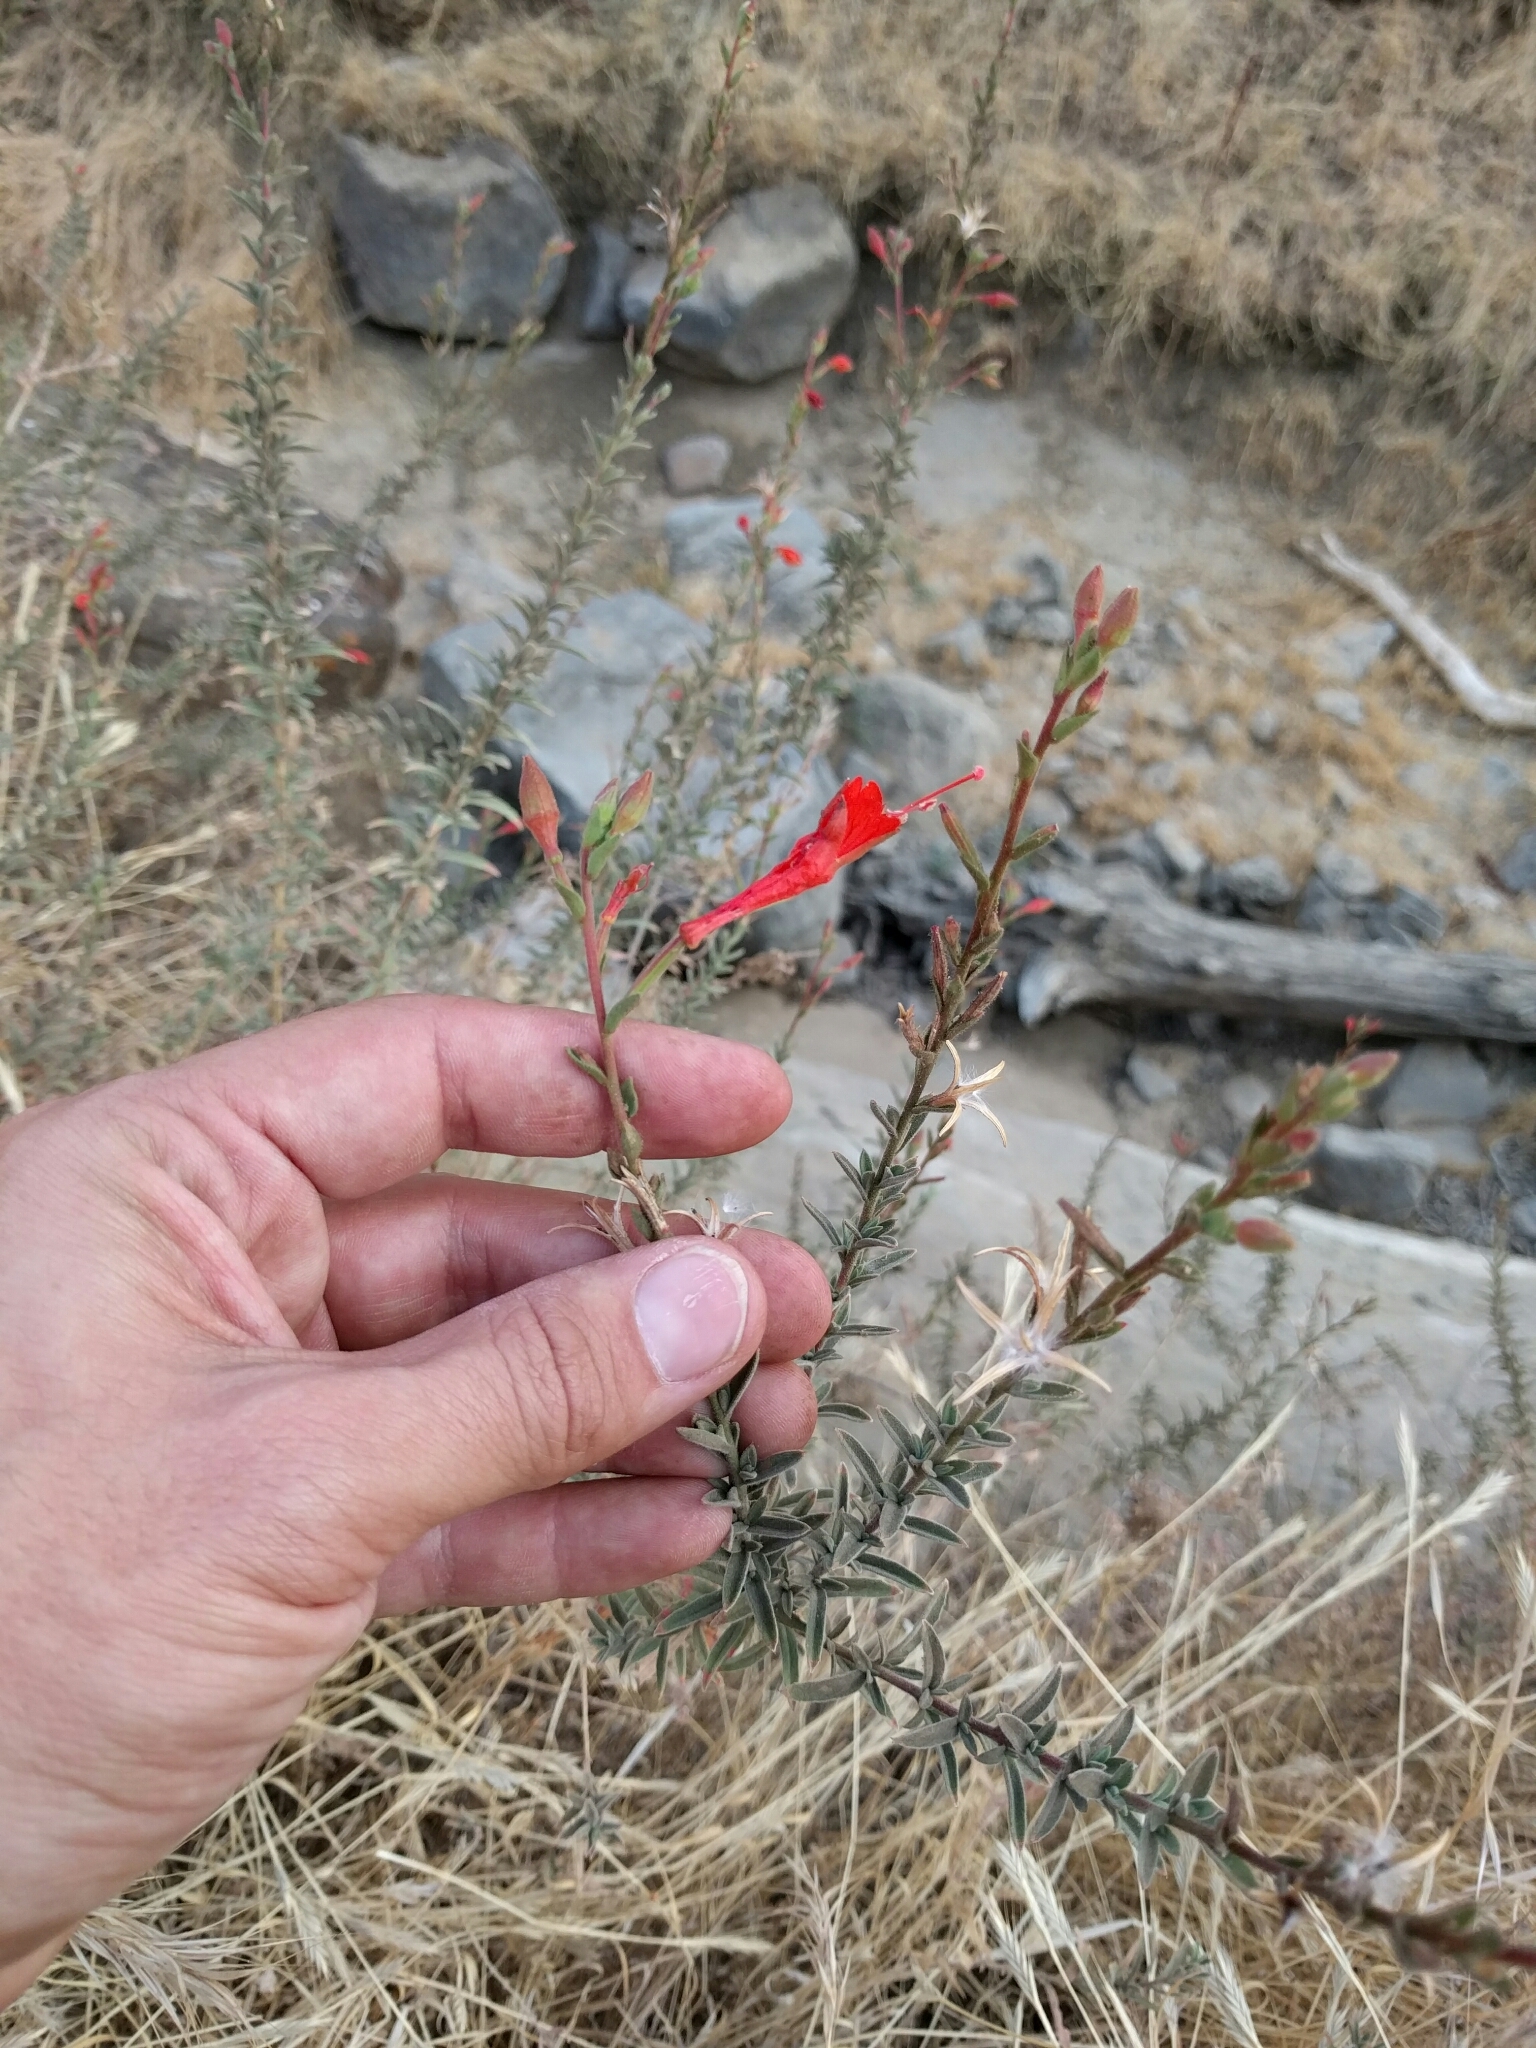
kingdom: Plantae
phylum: Tracheophyta
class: Magnoliopsida
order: Myrtales
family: Onagraceae
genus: Epilobium
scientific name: Epilobium canum
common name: California-fuchsia
